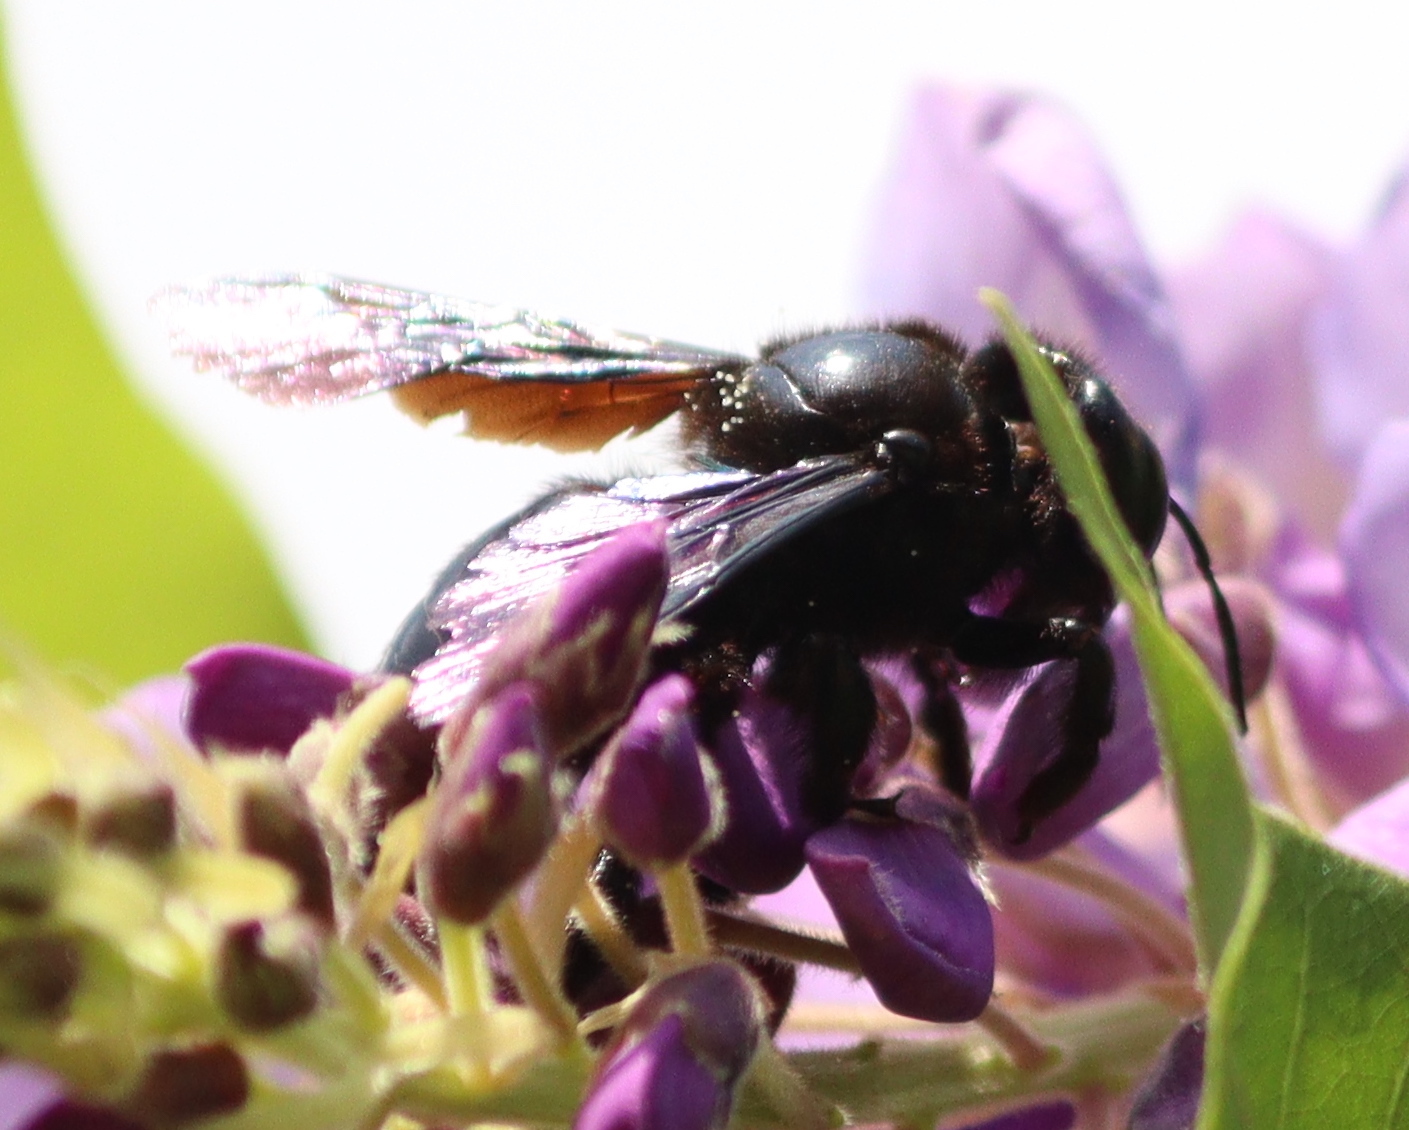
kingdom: Animalia
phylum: Arthropoda
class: Insecta
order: Hymenoptera
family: Apidae
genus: Xylocopa
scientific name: Xylocopa violacea
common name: Violet carpenter bee
